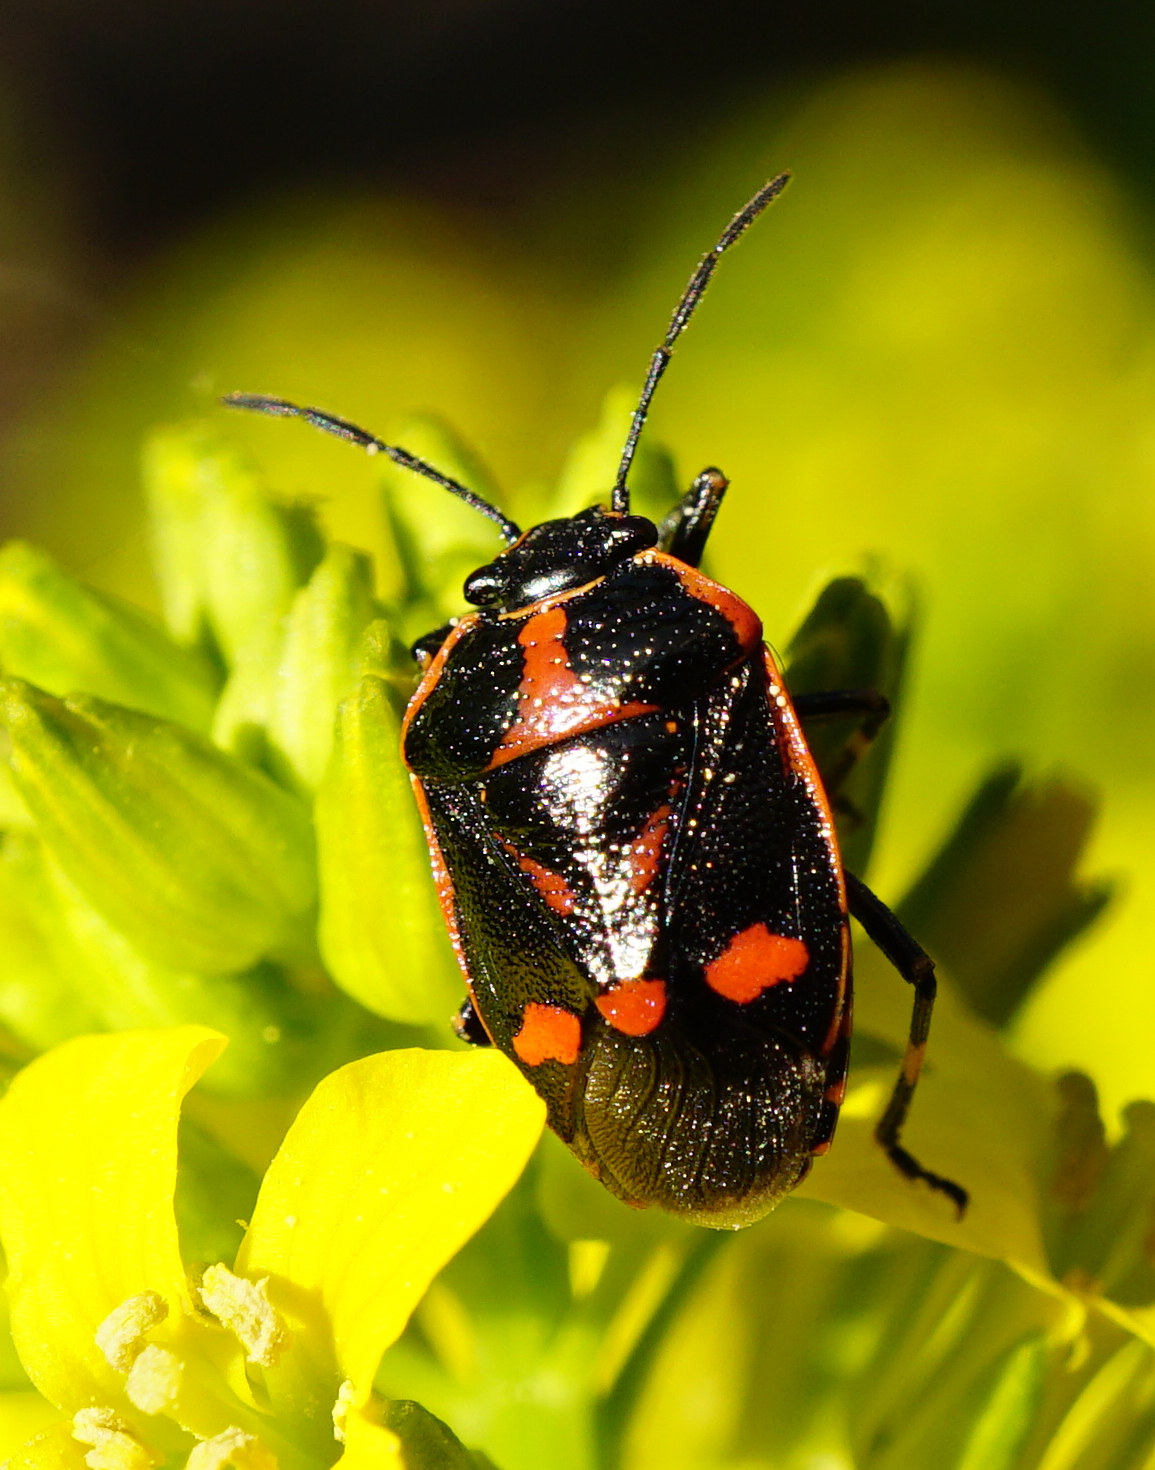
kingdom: Animalia
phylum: Arthropoda
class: Insecta
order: Hemiptera
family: Pentatomidae
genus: Eurydema
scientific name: Eurydema oleracea
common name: Cabbage bug
